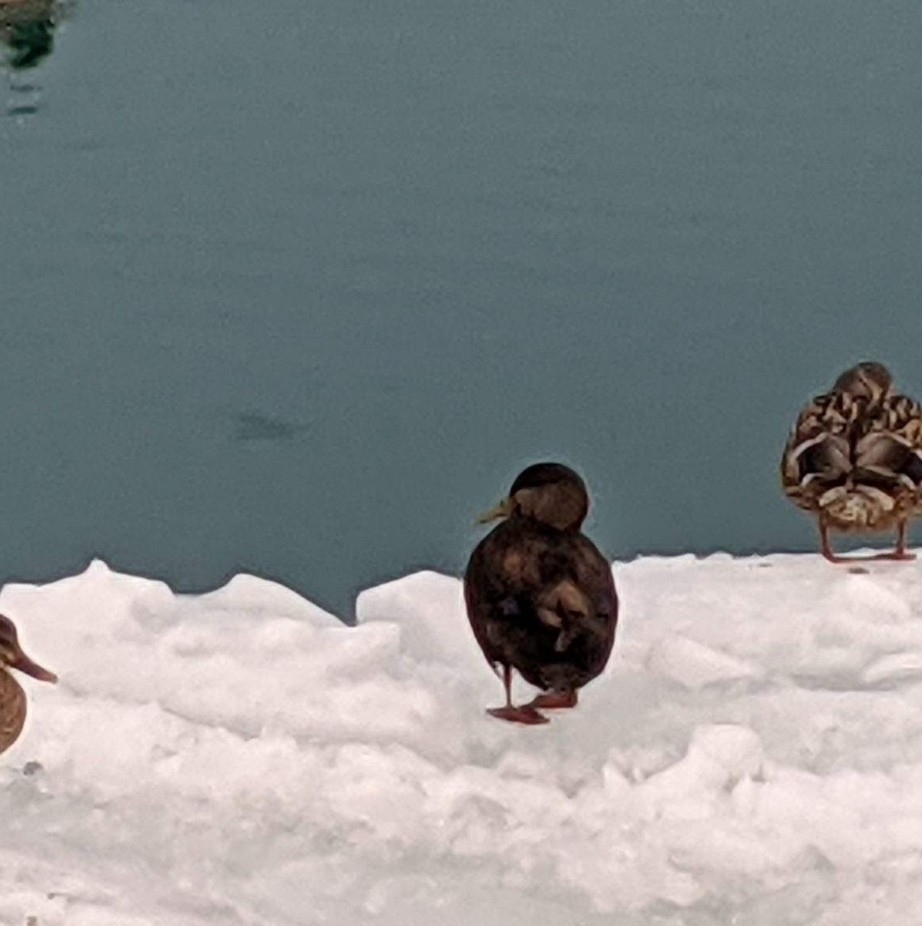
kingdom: Animalia
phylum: Chordata
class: Aves
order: Anseriformes
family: Anatidae
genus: Anas
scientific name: Anas rubripes
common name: American black duck
